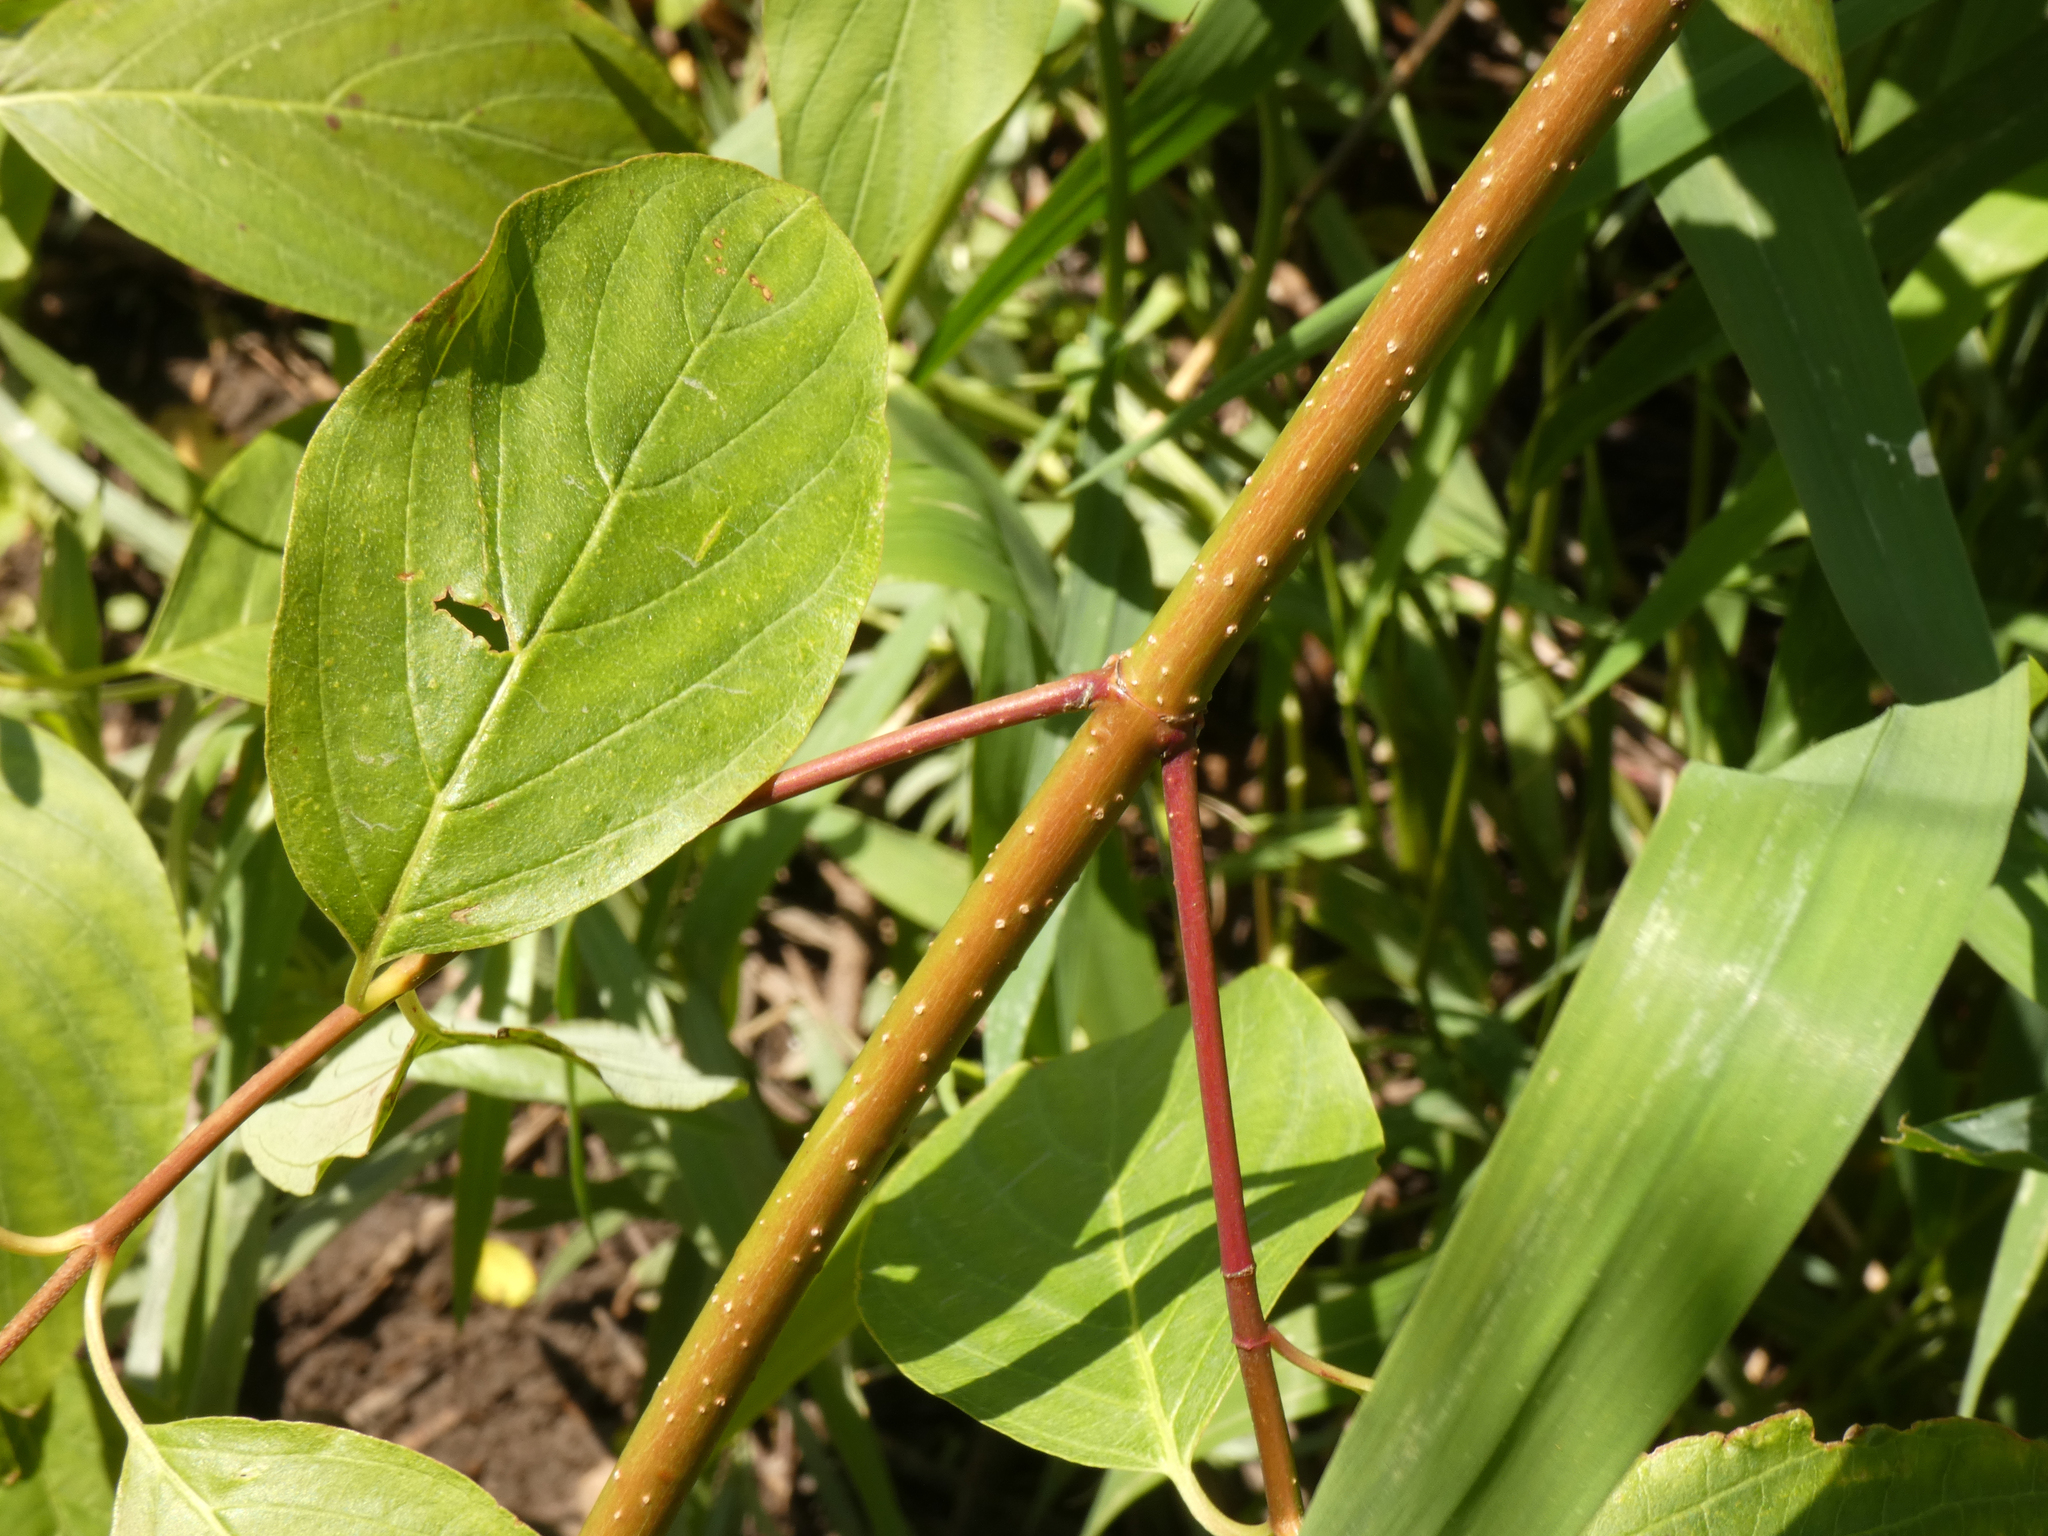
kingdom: Plantae
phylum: Tracheophyta
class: Magnoliopsida
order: Cornales
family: Cornaceae
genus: Cornus
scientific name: Cornus sericea
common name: Red-osier dogwood
